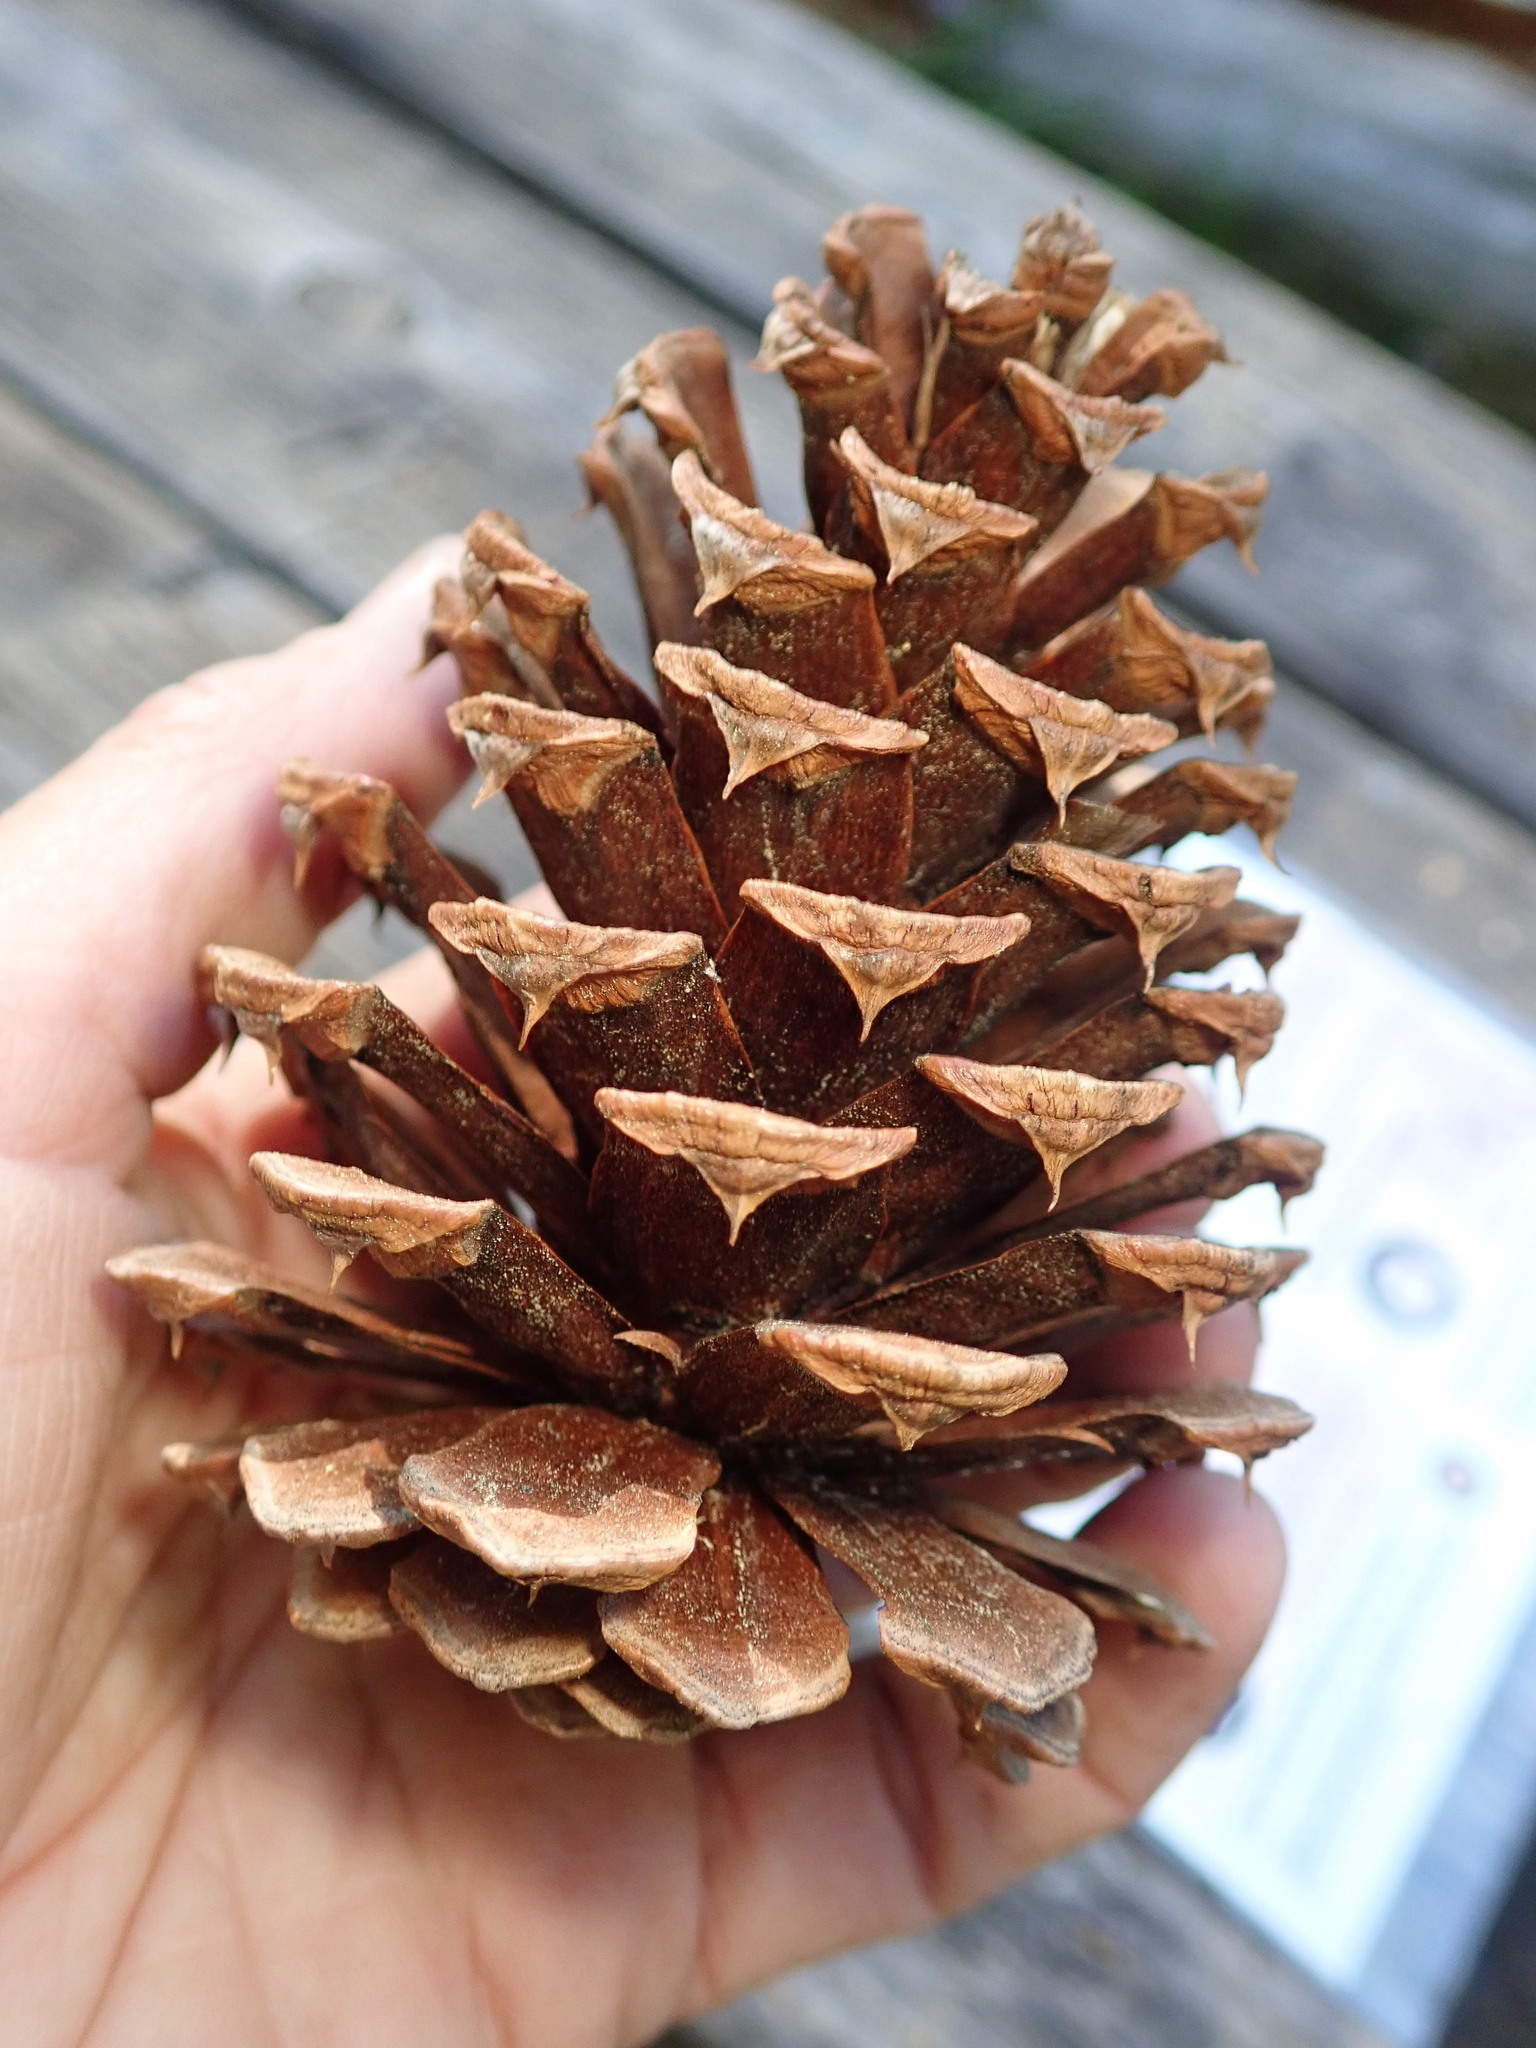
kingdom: Plantae
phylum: Tracheophyta
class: Pinopsida
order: Pinales
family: Pinaceae
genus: Pinus
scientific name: Pinus ponderosa
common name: Western yellow-pine
